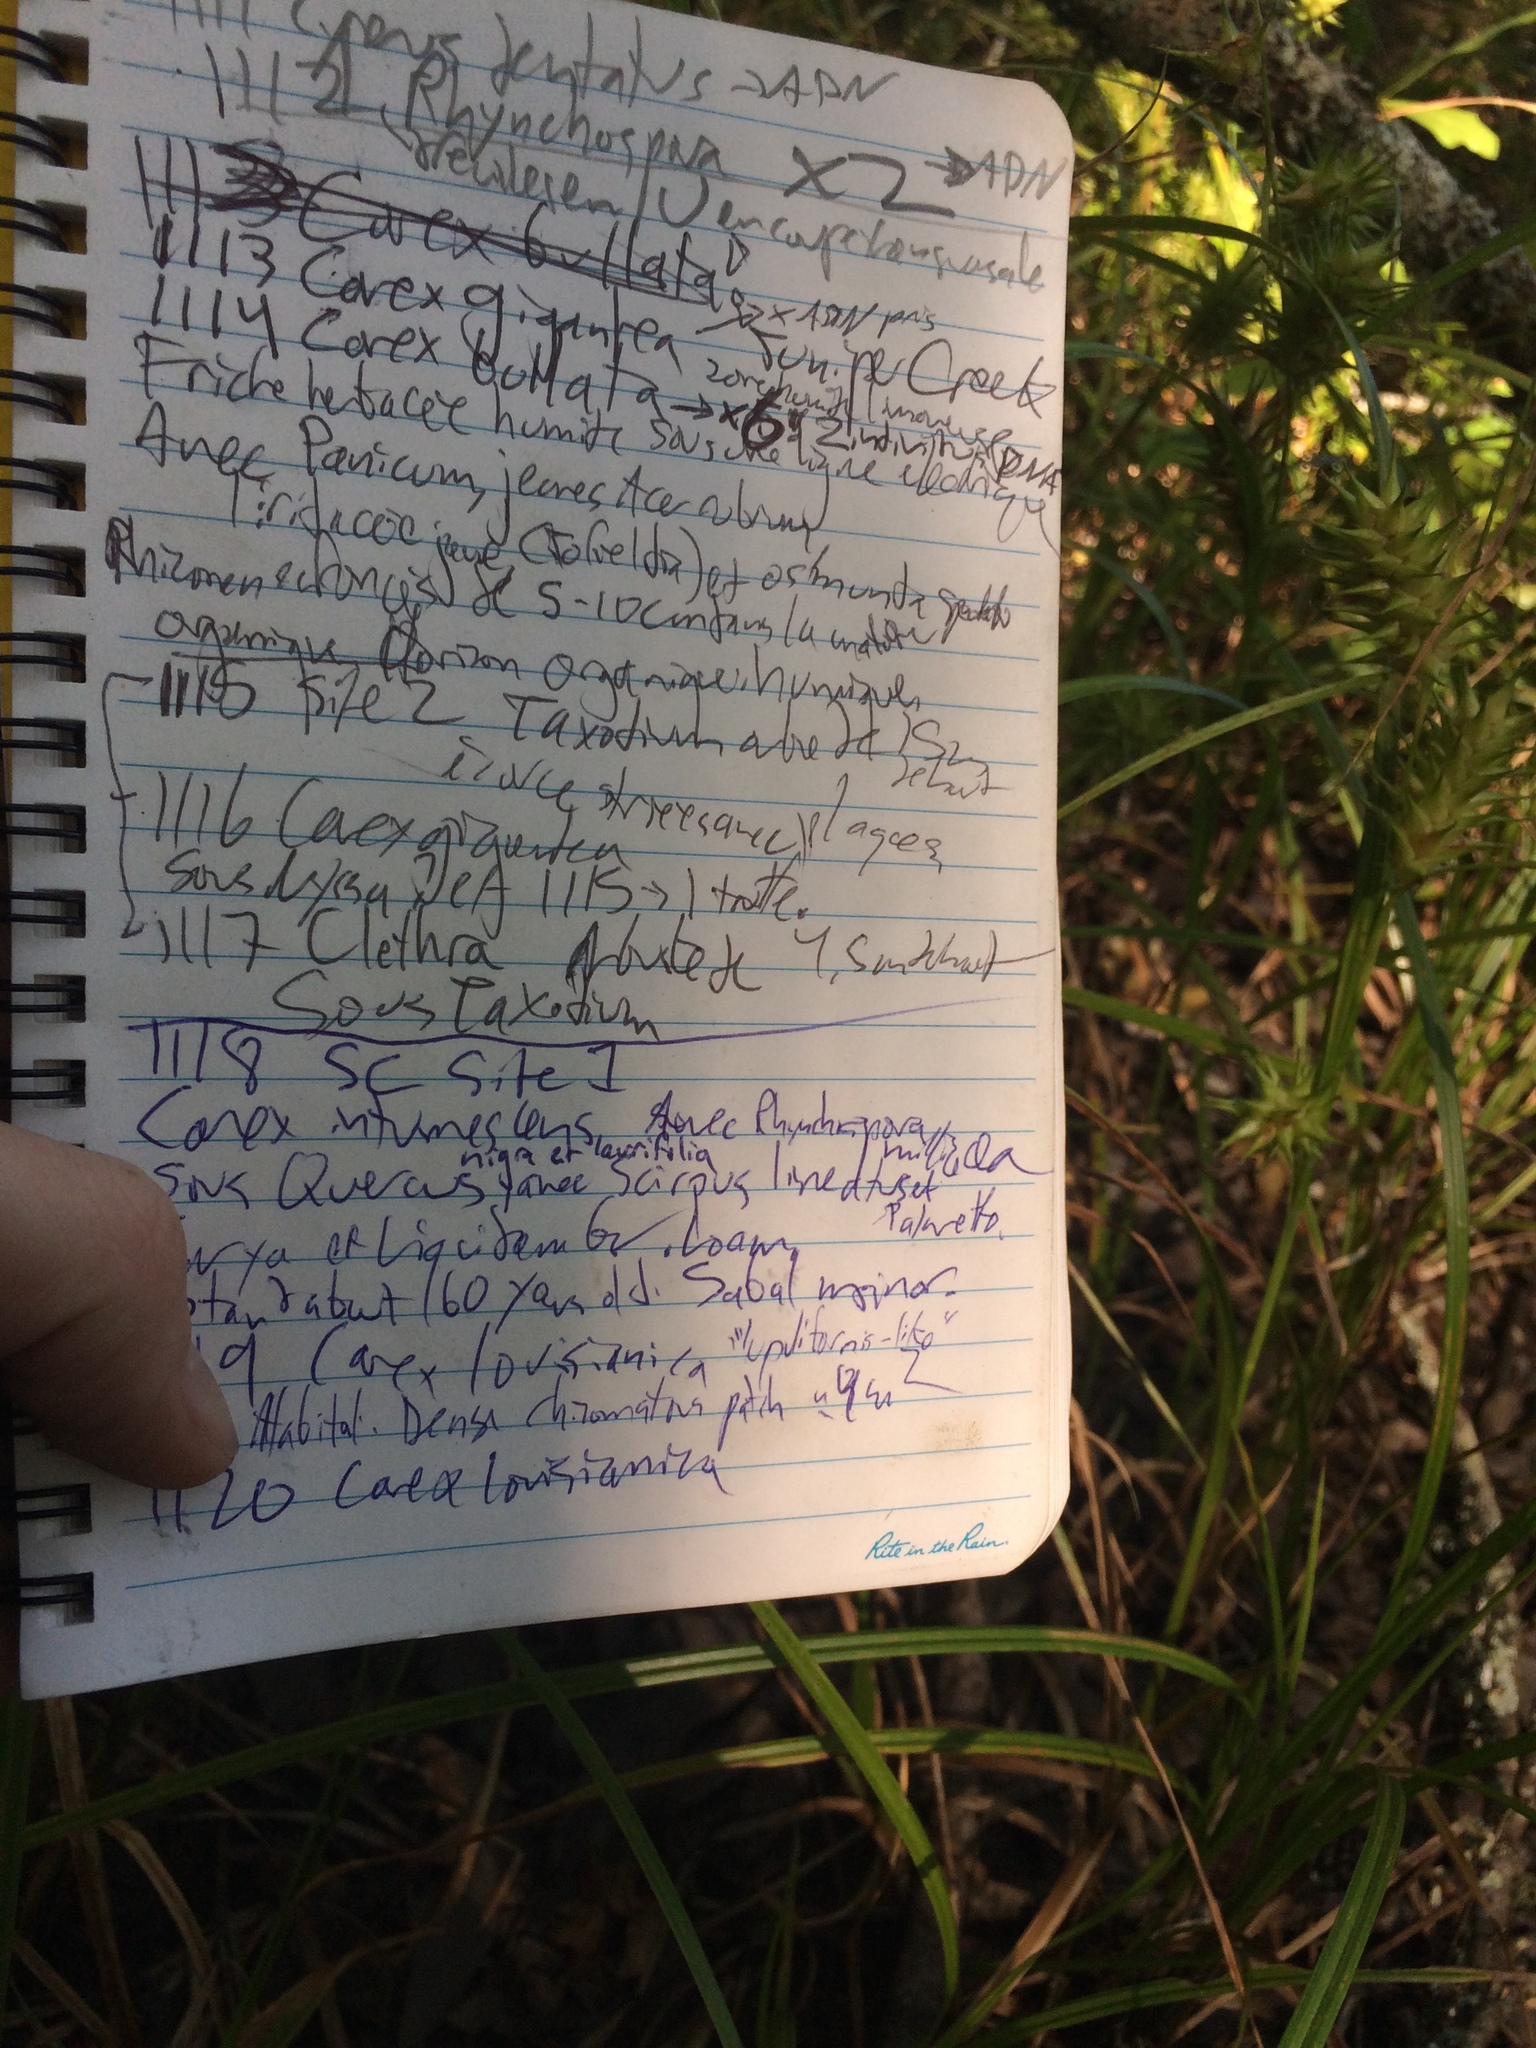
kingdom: Plantae
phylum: Tracheophyta
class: Liliopsida
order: Poales
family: Cyperaceae
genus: Carex
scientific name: Carex louisianica
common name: Louisiana sedge
